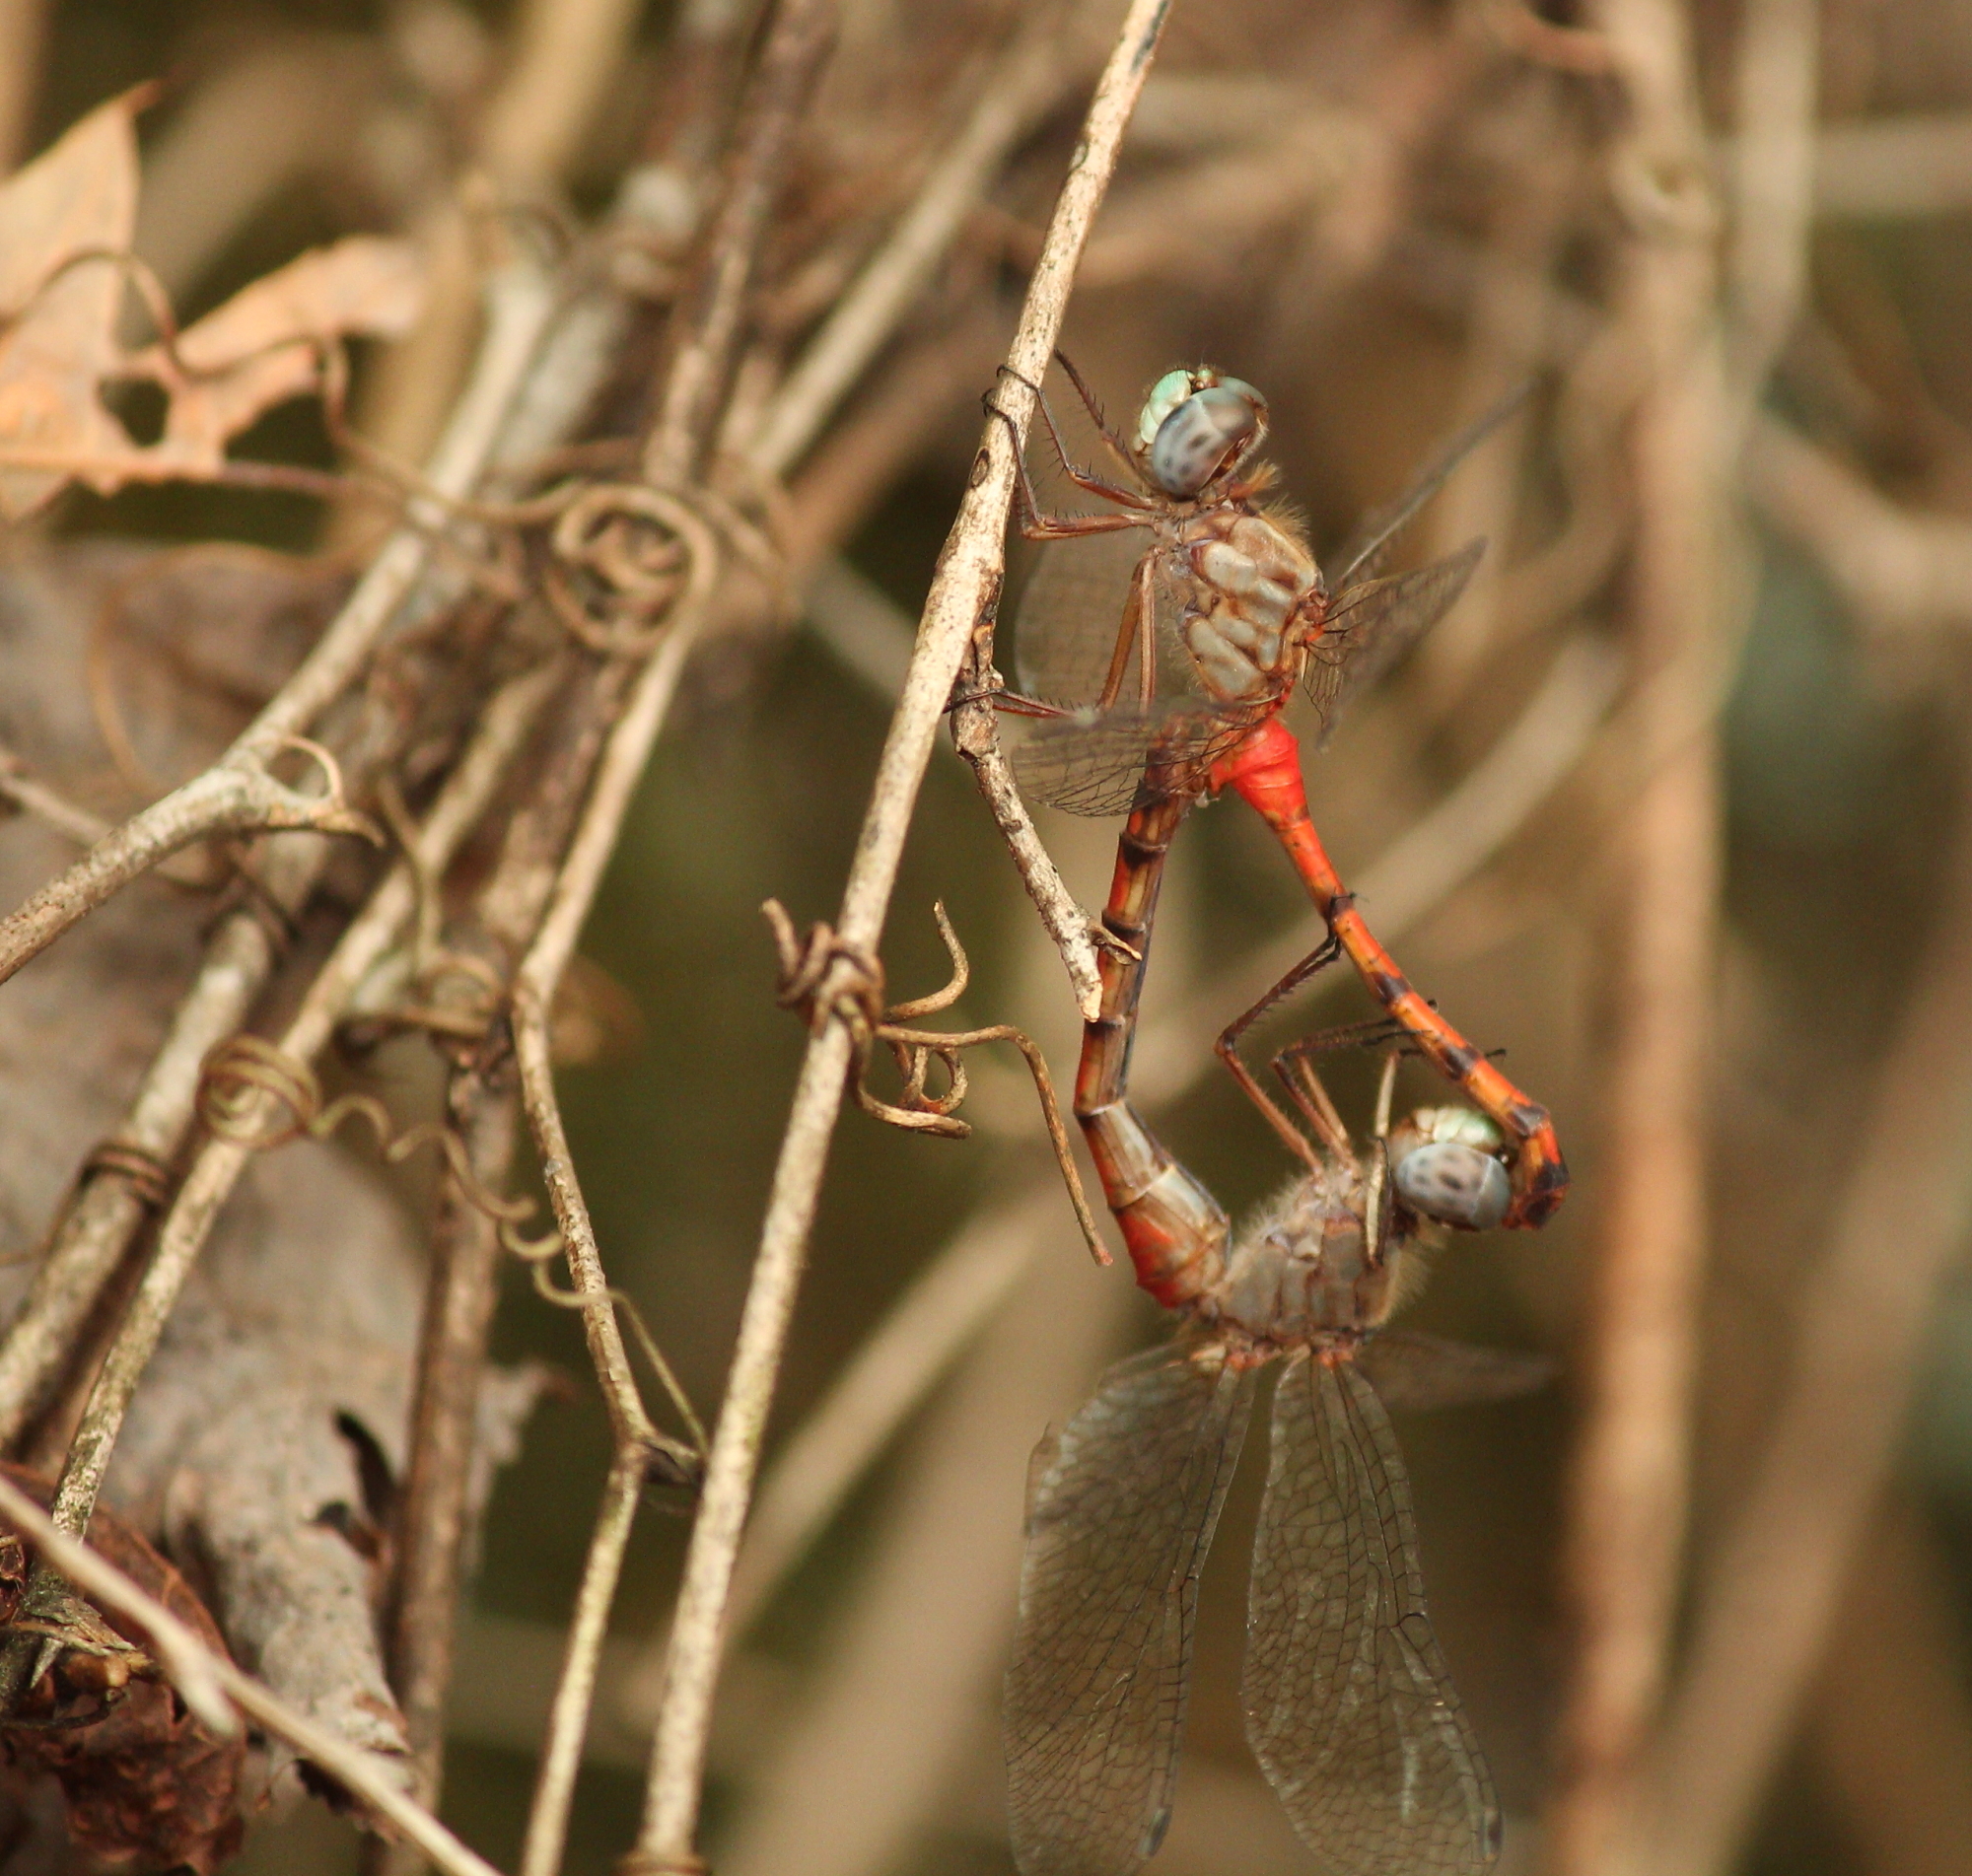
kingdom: Animalia
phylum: Arthropoda
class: Insecta
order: Odonata
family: Libellulidae
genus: Sympetrum
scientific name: Sympetrum ambiguum
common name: Blue-faced meadowhawk
